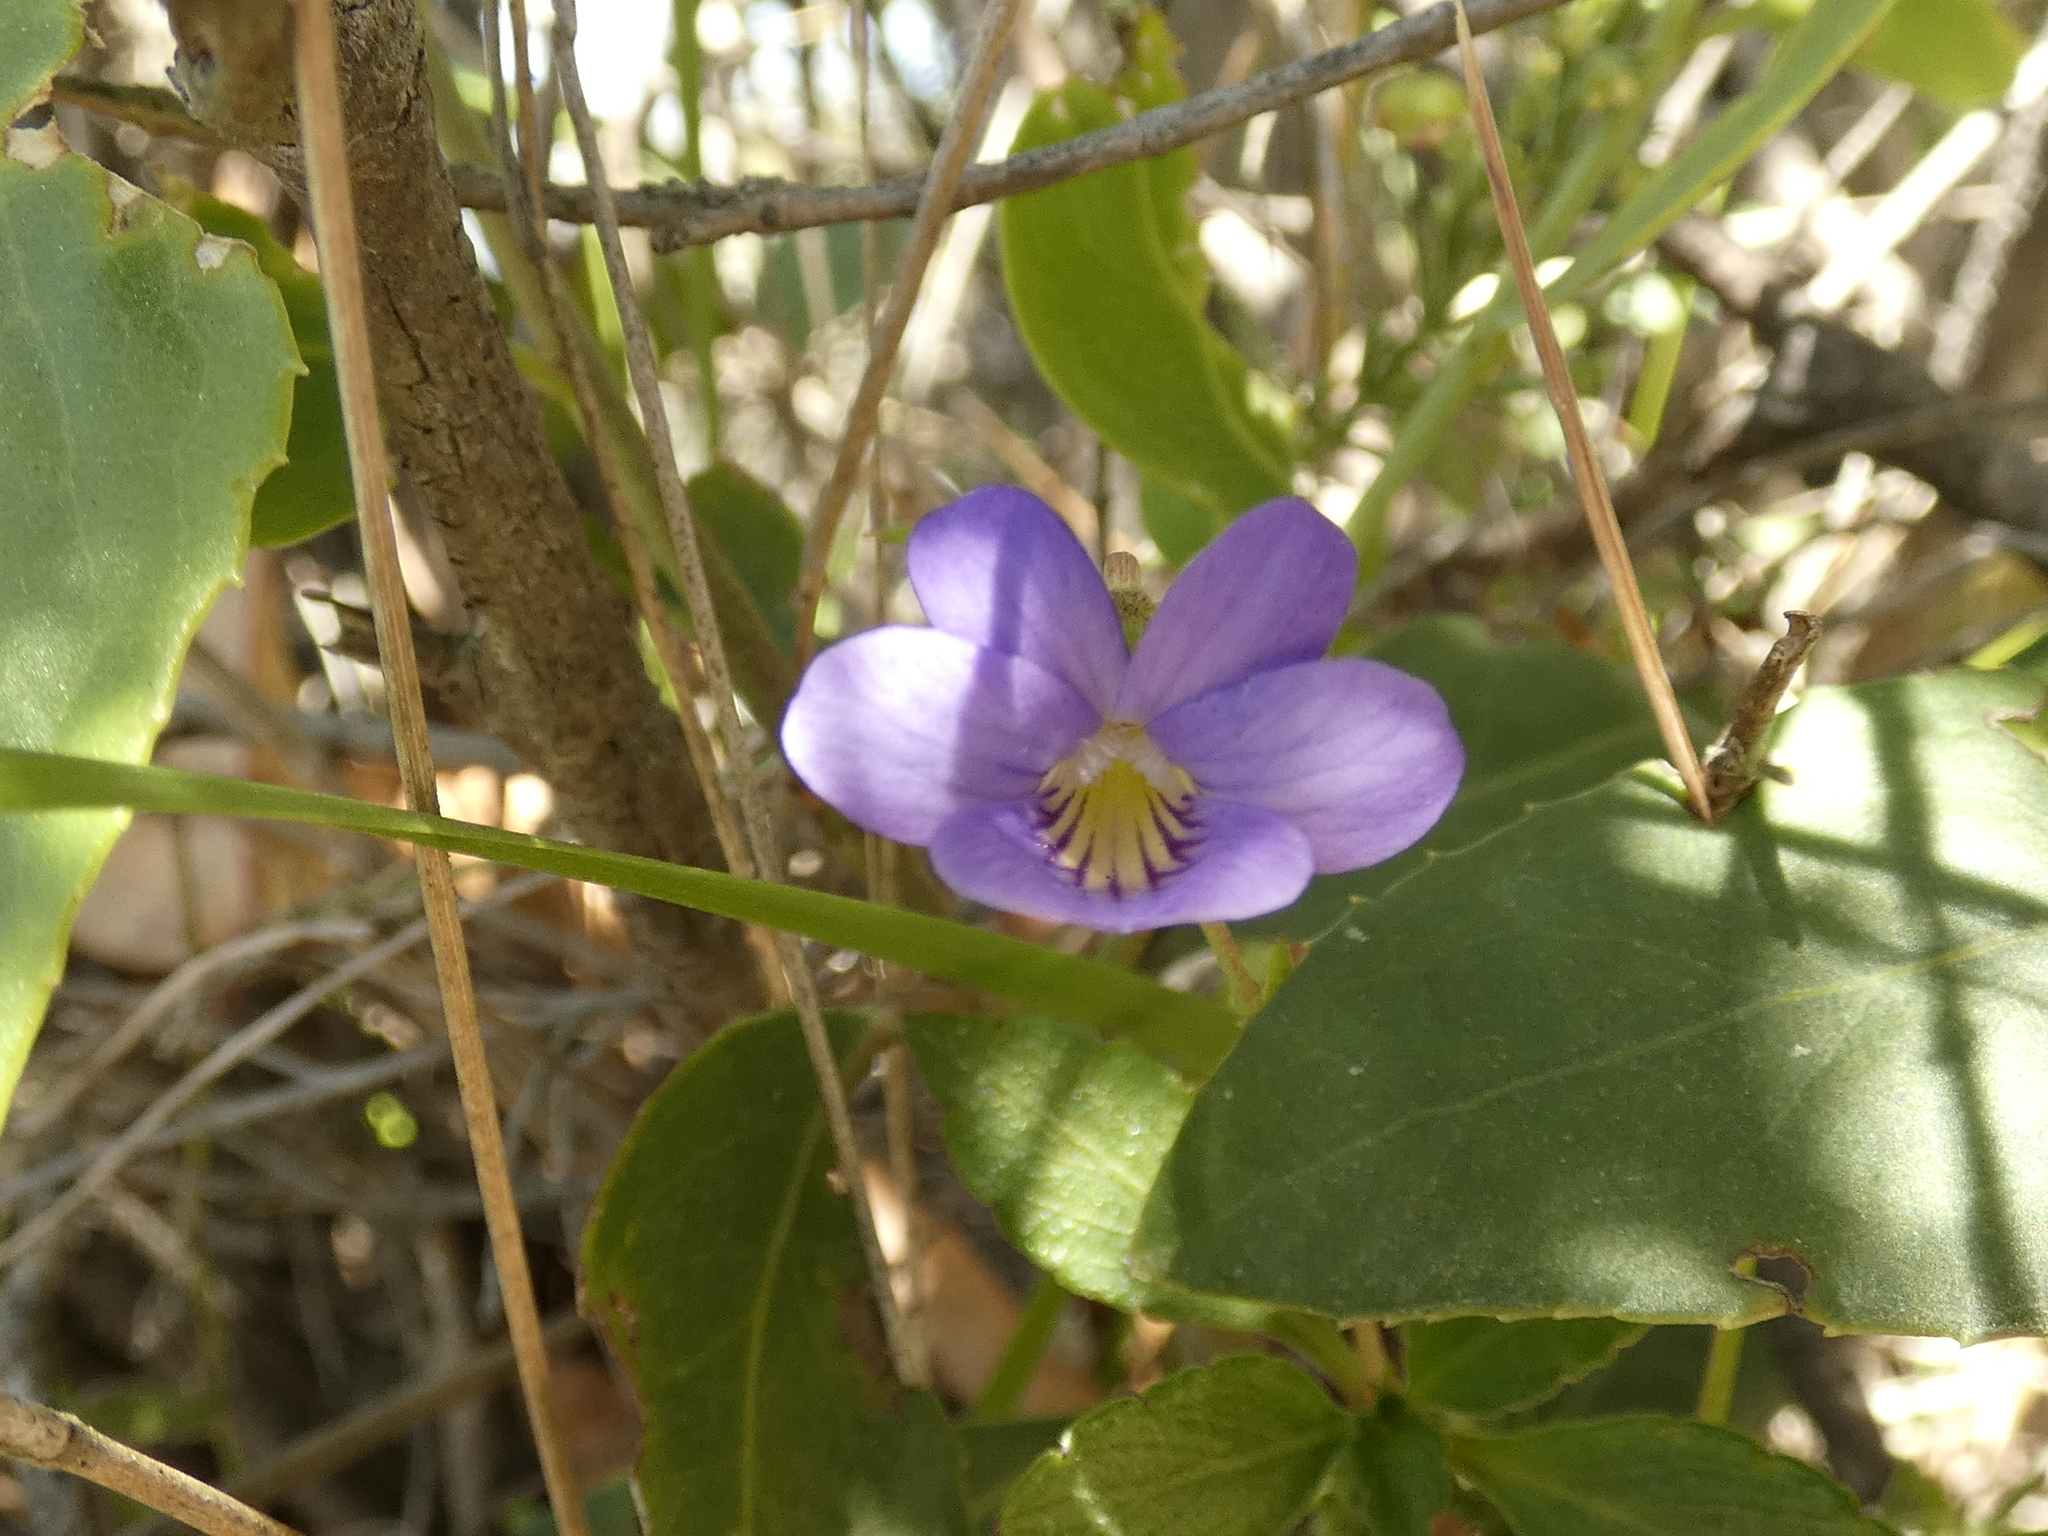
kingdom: Plantae
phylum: Tracheophyta
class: Magnoliopsida
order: Malpighiales
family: Violaceae
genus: Viola
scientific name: Viola portalesia
